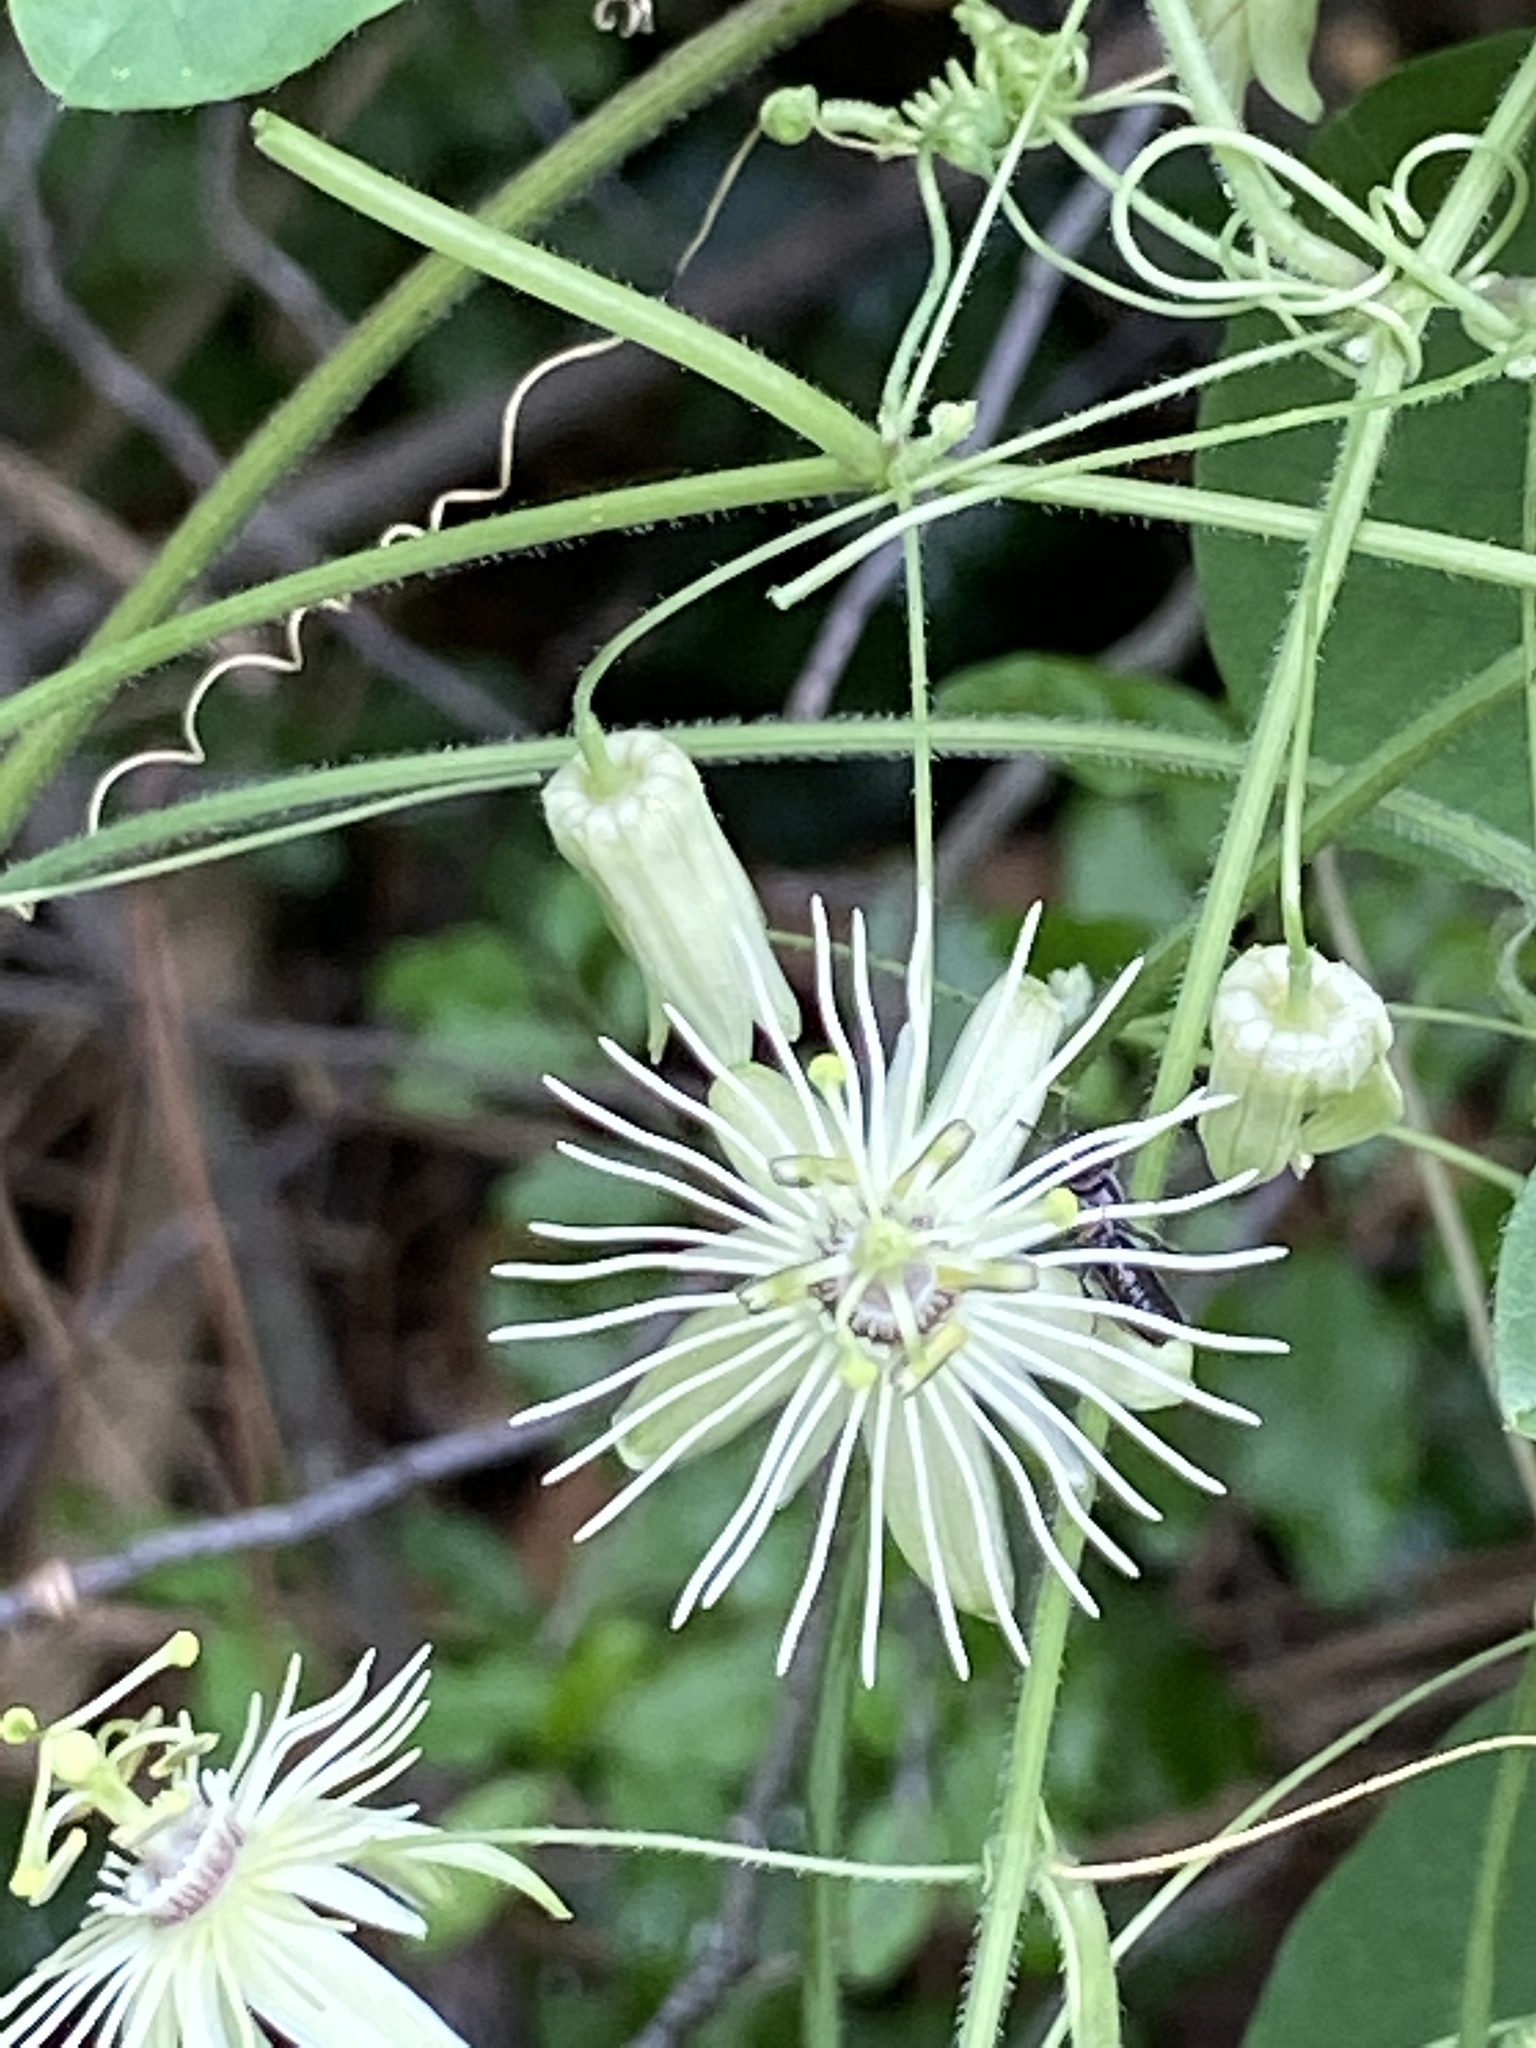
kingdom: Plantae
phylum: Tracheophyta
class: Magnoliopsida
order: Malpighiales
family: Passifloraceae
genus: Passiflora
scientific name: Passiflora lutea
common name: Yellow passionflower
